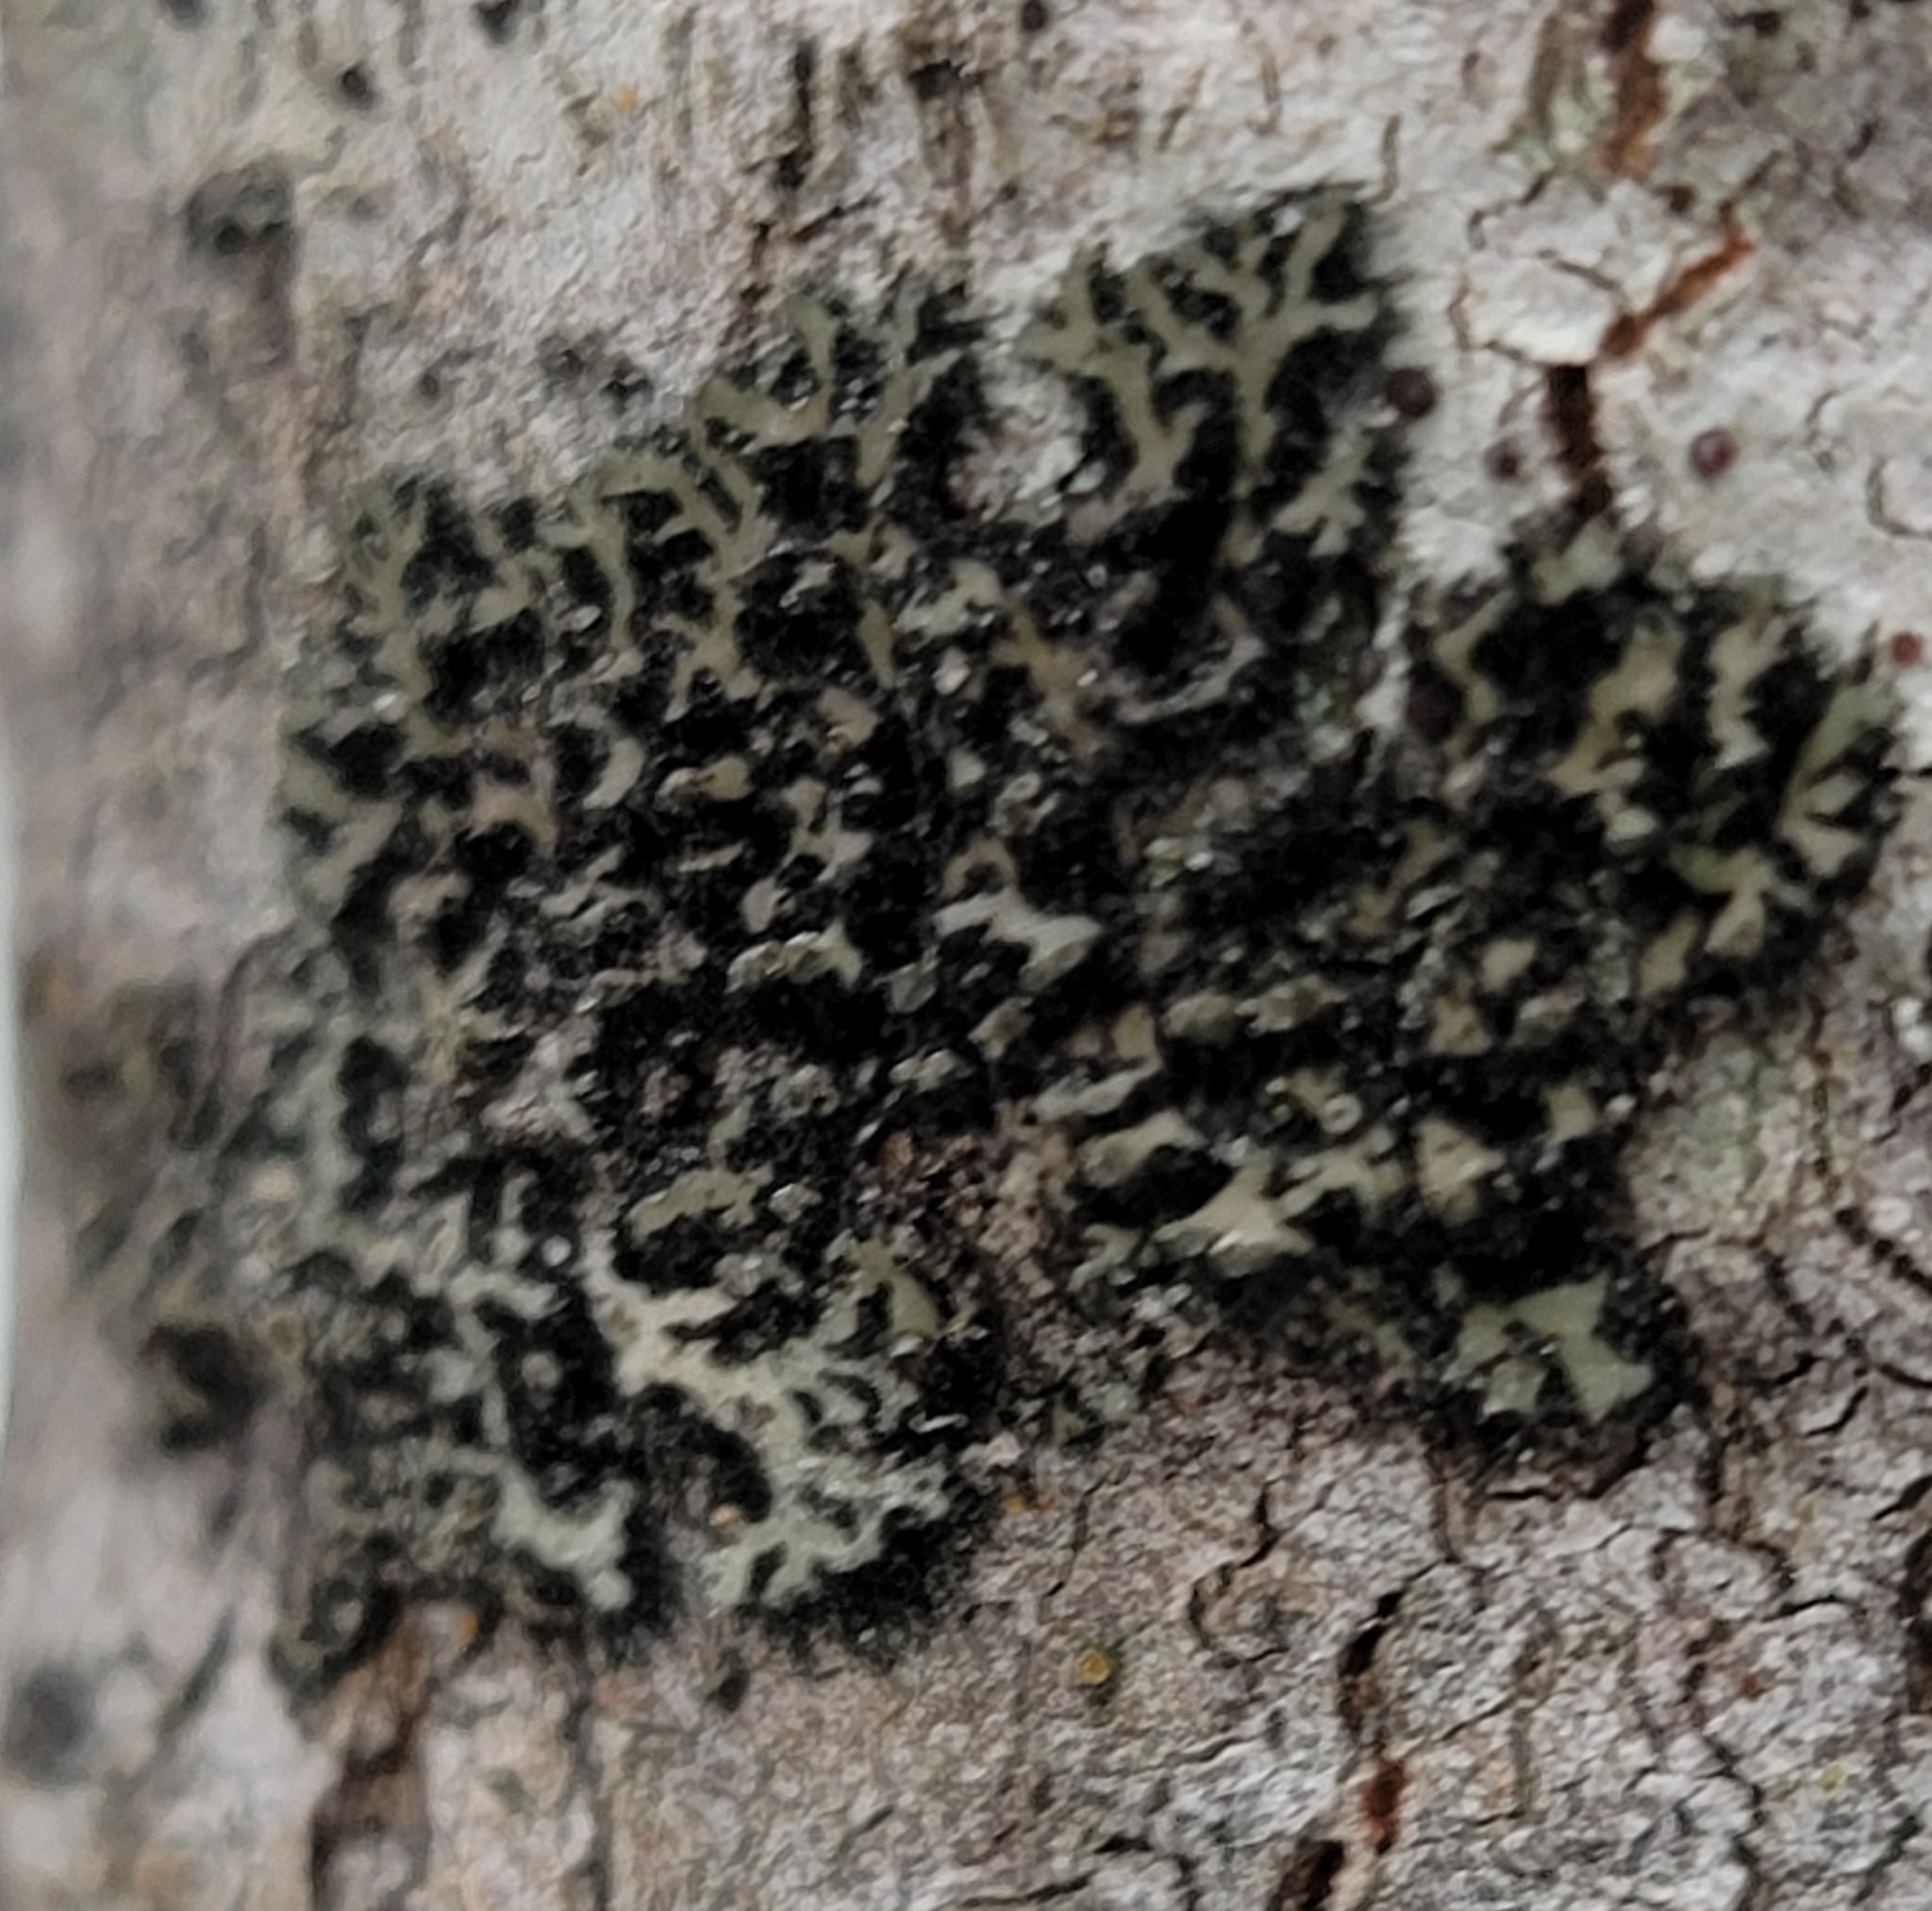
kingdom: Fungi
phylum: Ascomycota
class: Lecanoromycetes
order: Caliciales
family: Physciaceae
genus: Phaeophyscia
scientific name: Phaeophyscia pusilloides
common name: Pom-pom shadow lichen
